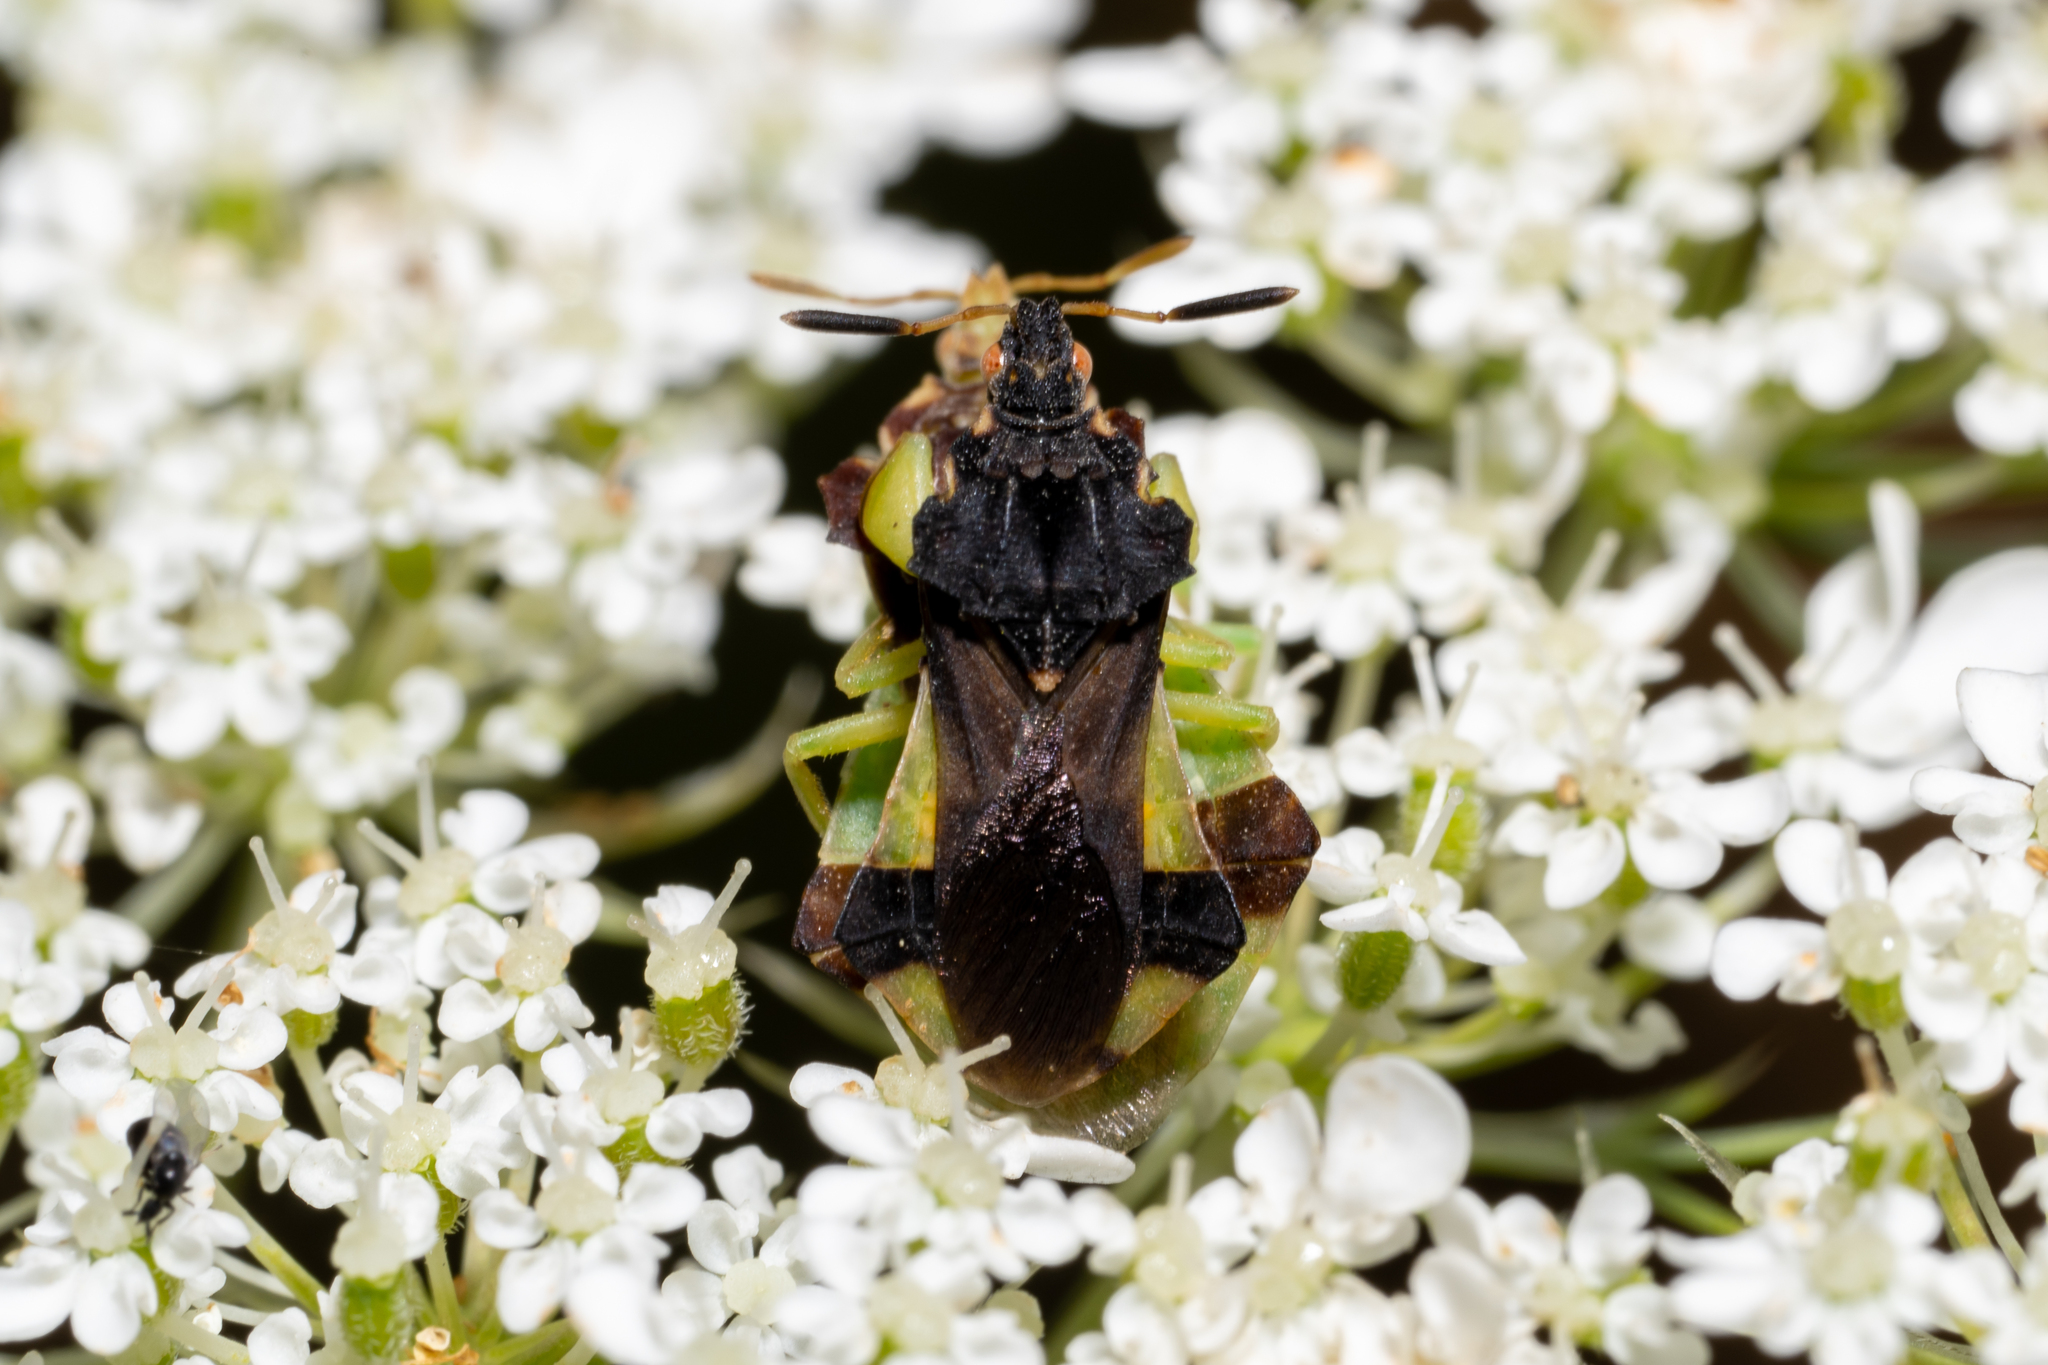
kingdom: Animalia
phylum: Arthropoda
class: Insecta
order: Hemiptera
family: Reduviidae
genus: Phymata
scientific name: Phymata pennsylvanica
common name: Pennsylvania ambush bug
